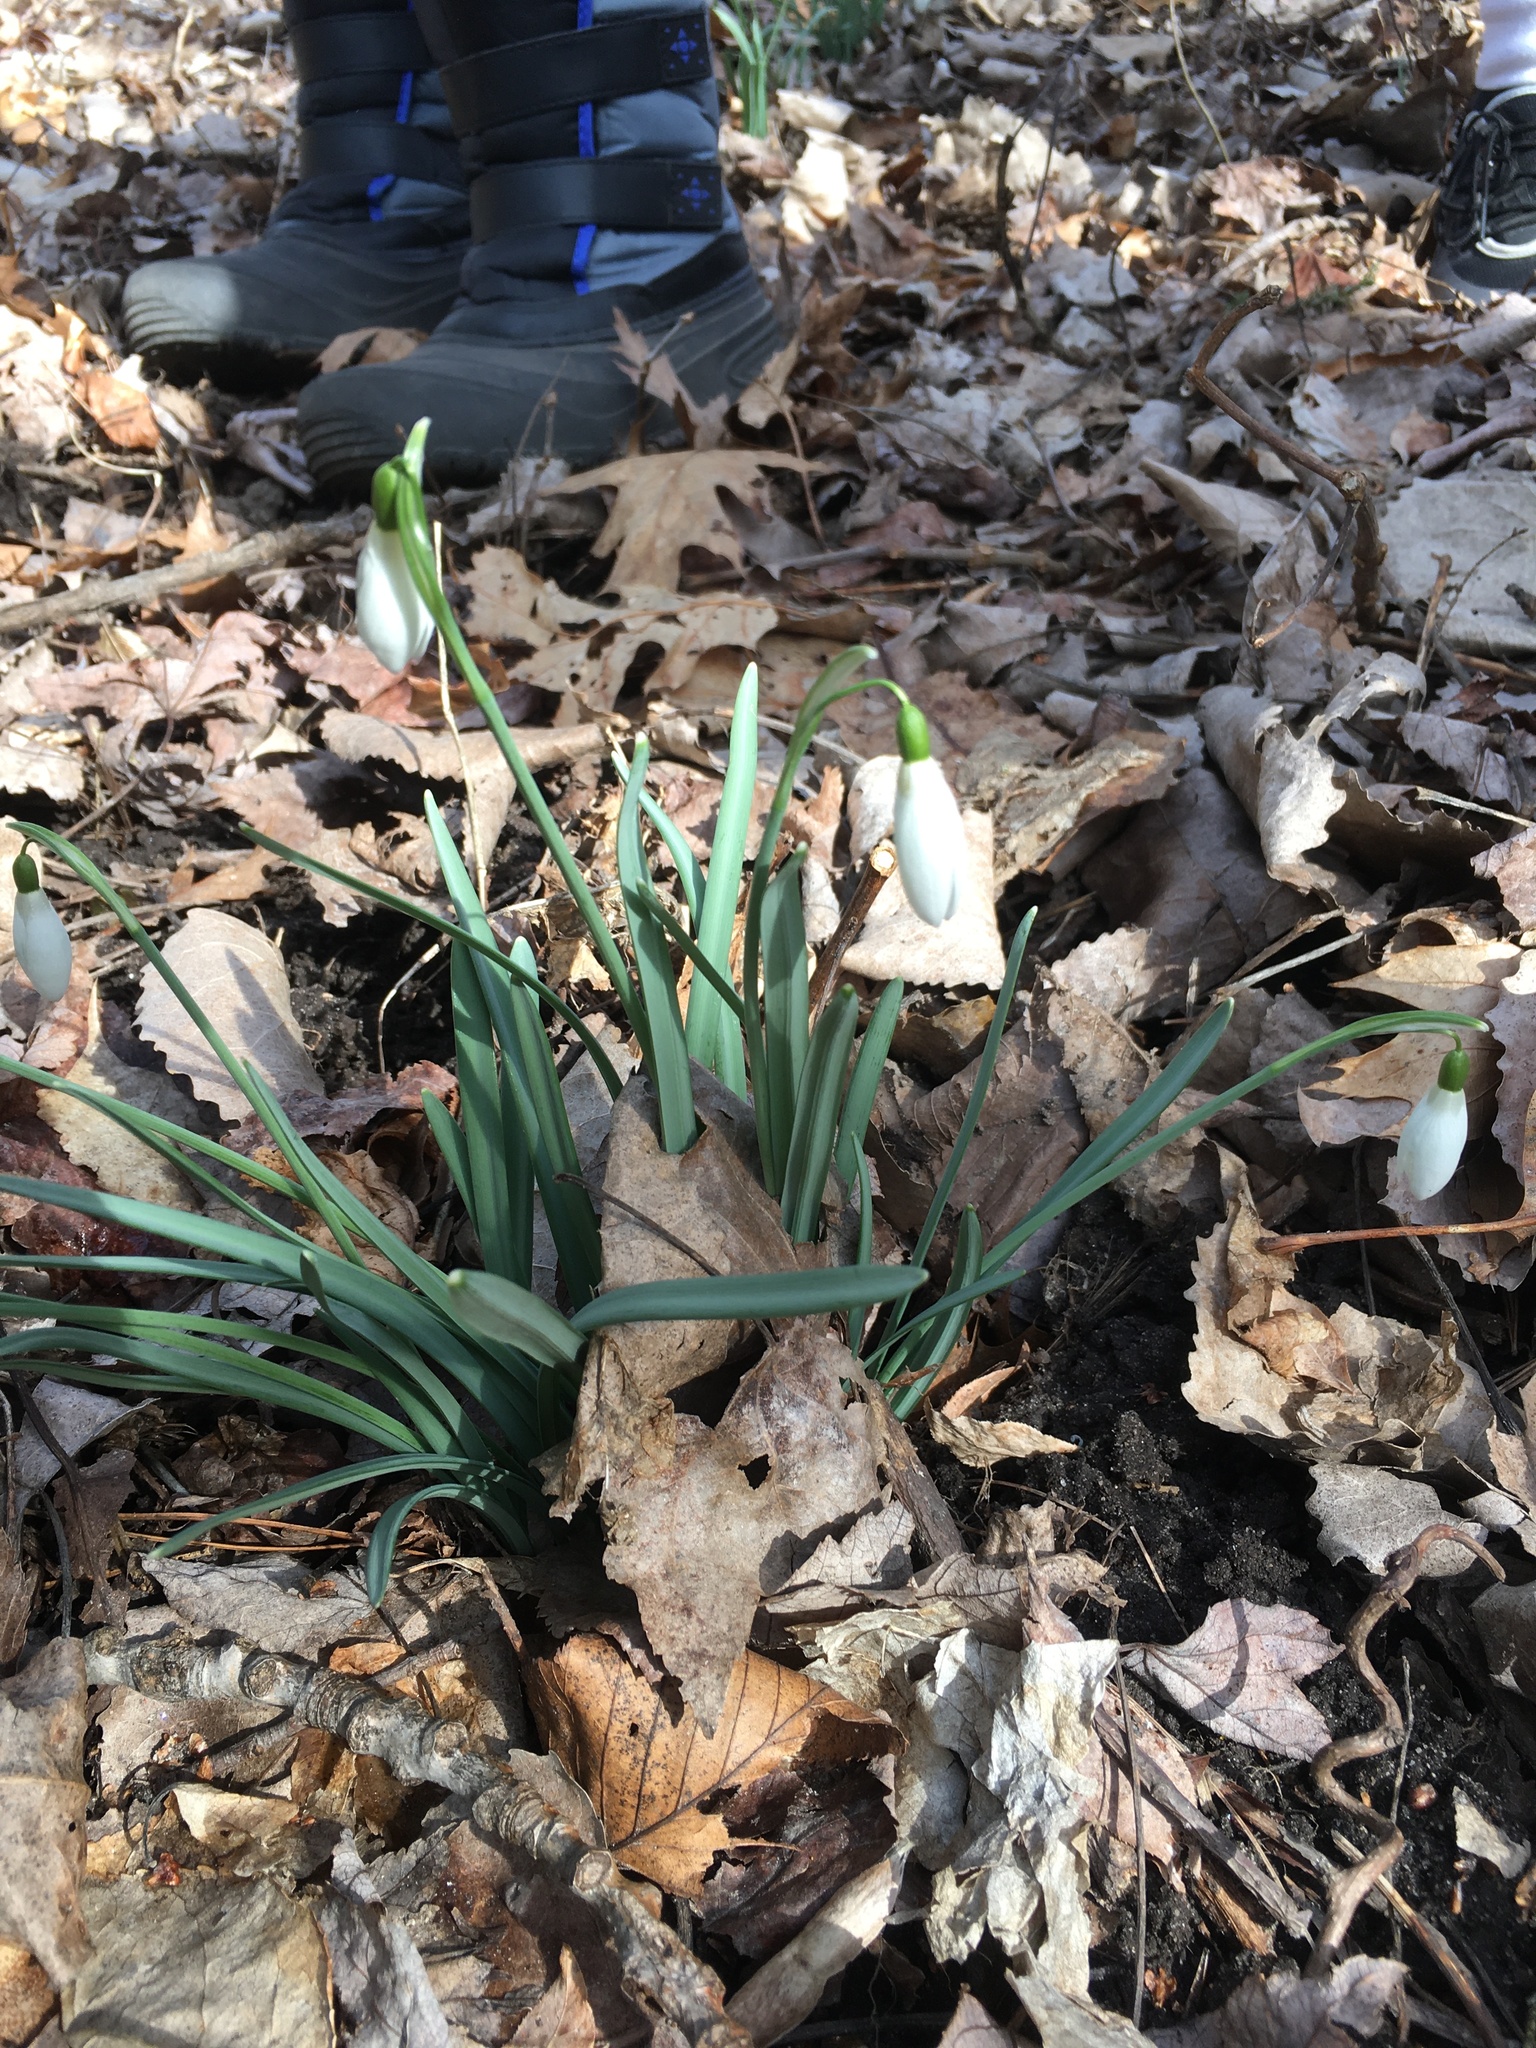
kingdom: Plantae
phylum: Tracheophyta
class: Liliopsida
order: Asparagales
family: Amaryllidaceae
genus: Galanthus
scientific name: Galanthus nivalis
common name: Snowdrop
